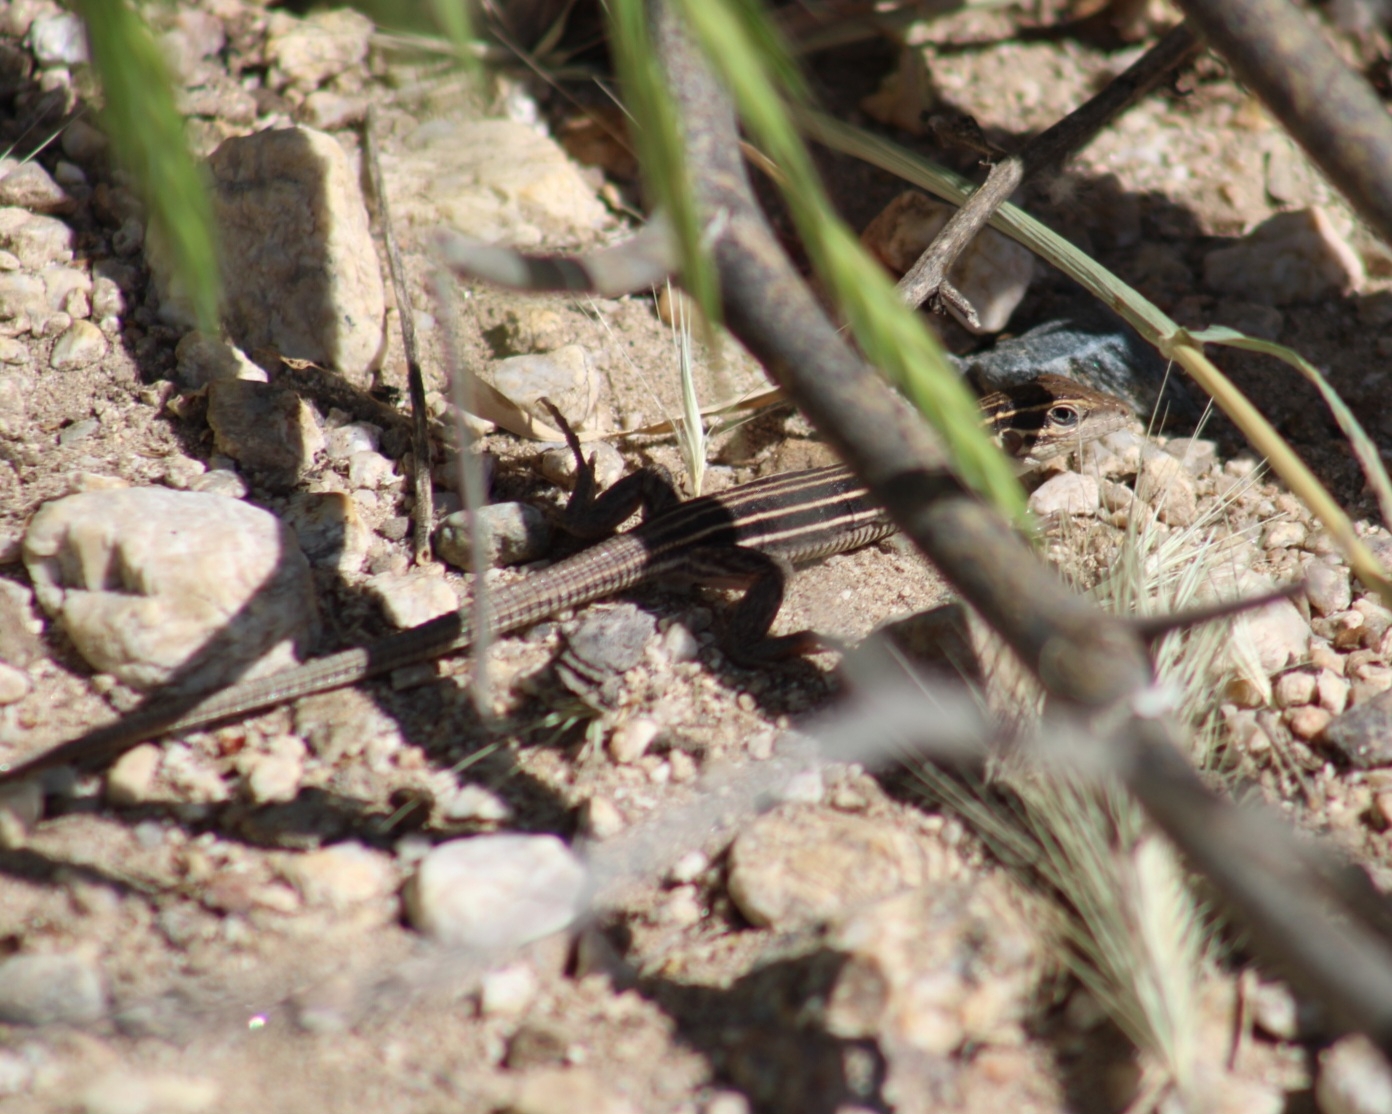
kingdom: Animalia
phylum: Chordata
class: Squamata
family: Teiidae
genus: Aspidoscelis
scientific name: Aspidoscelis sonorae
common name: Sonoran spotted whiptail
